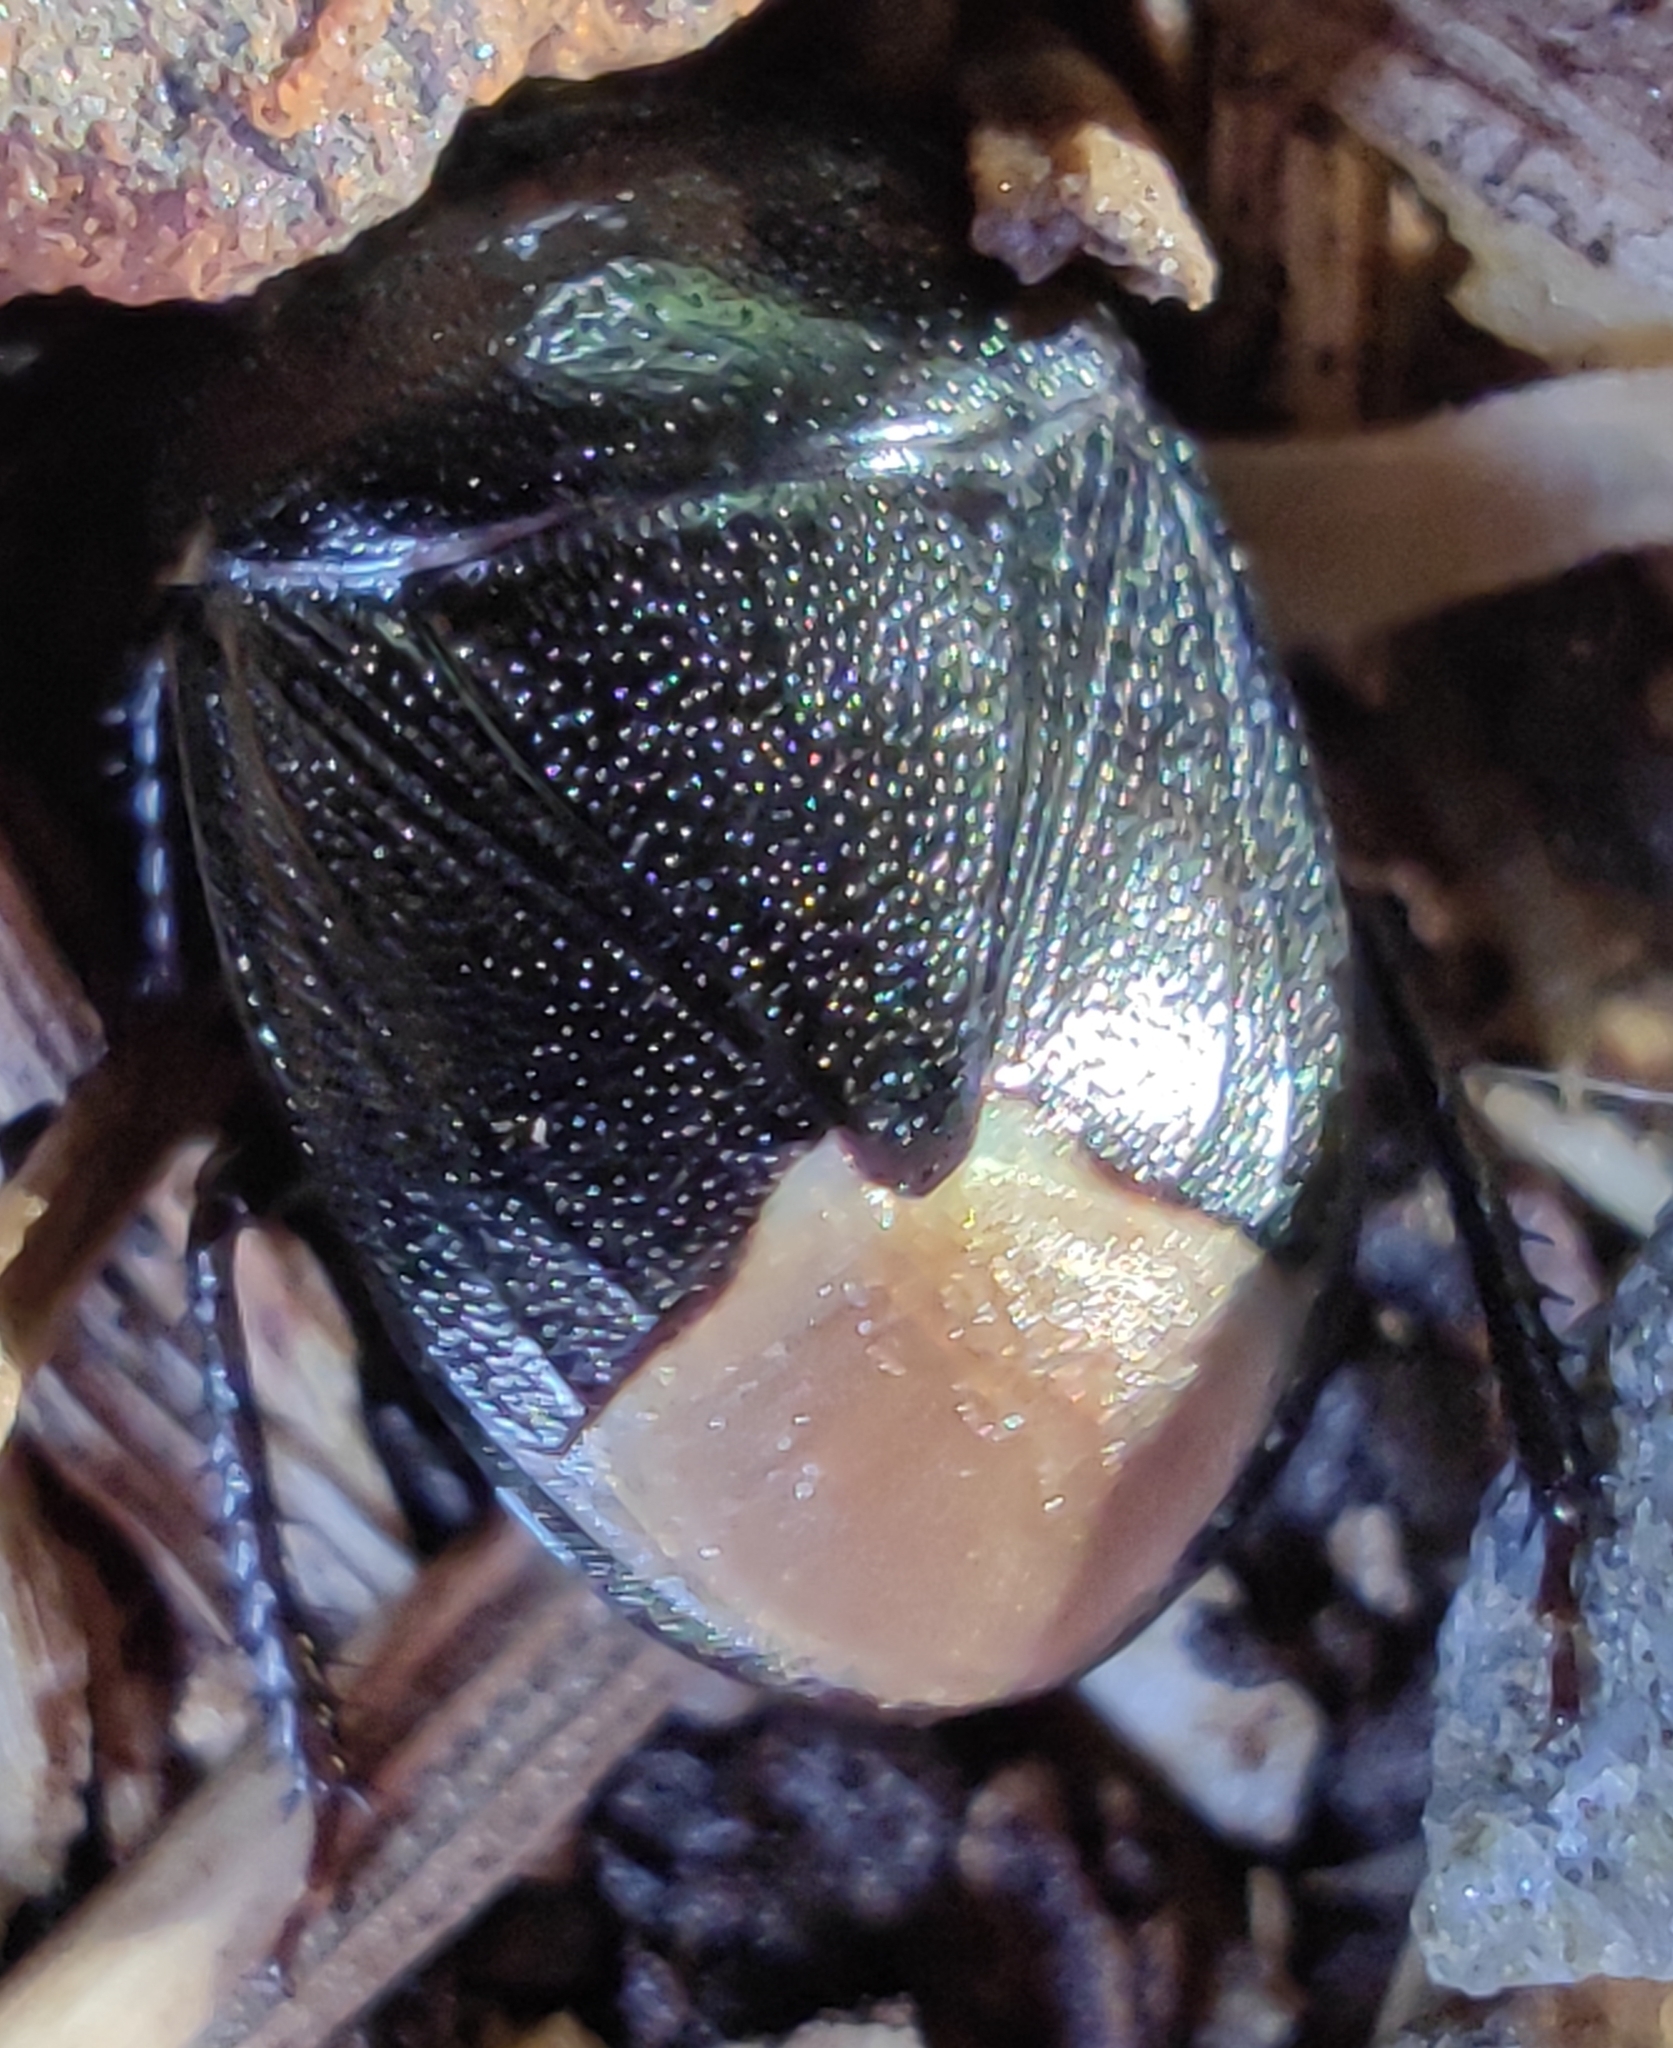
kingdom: Animalia
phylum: Arthropoda
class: Insecta
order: Hemiptera
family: Cydnidae
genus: Sehirus
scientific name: Sehirus luctuosus
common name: Forget-me-not shieldbug
